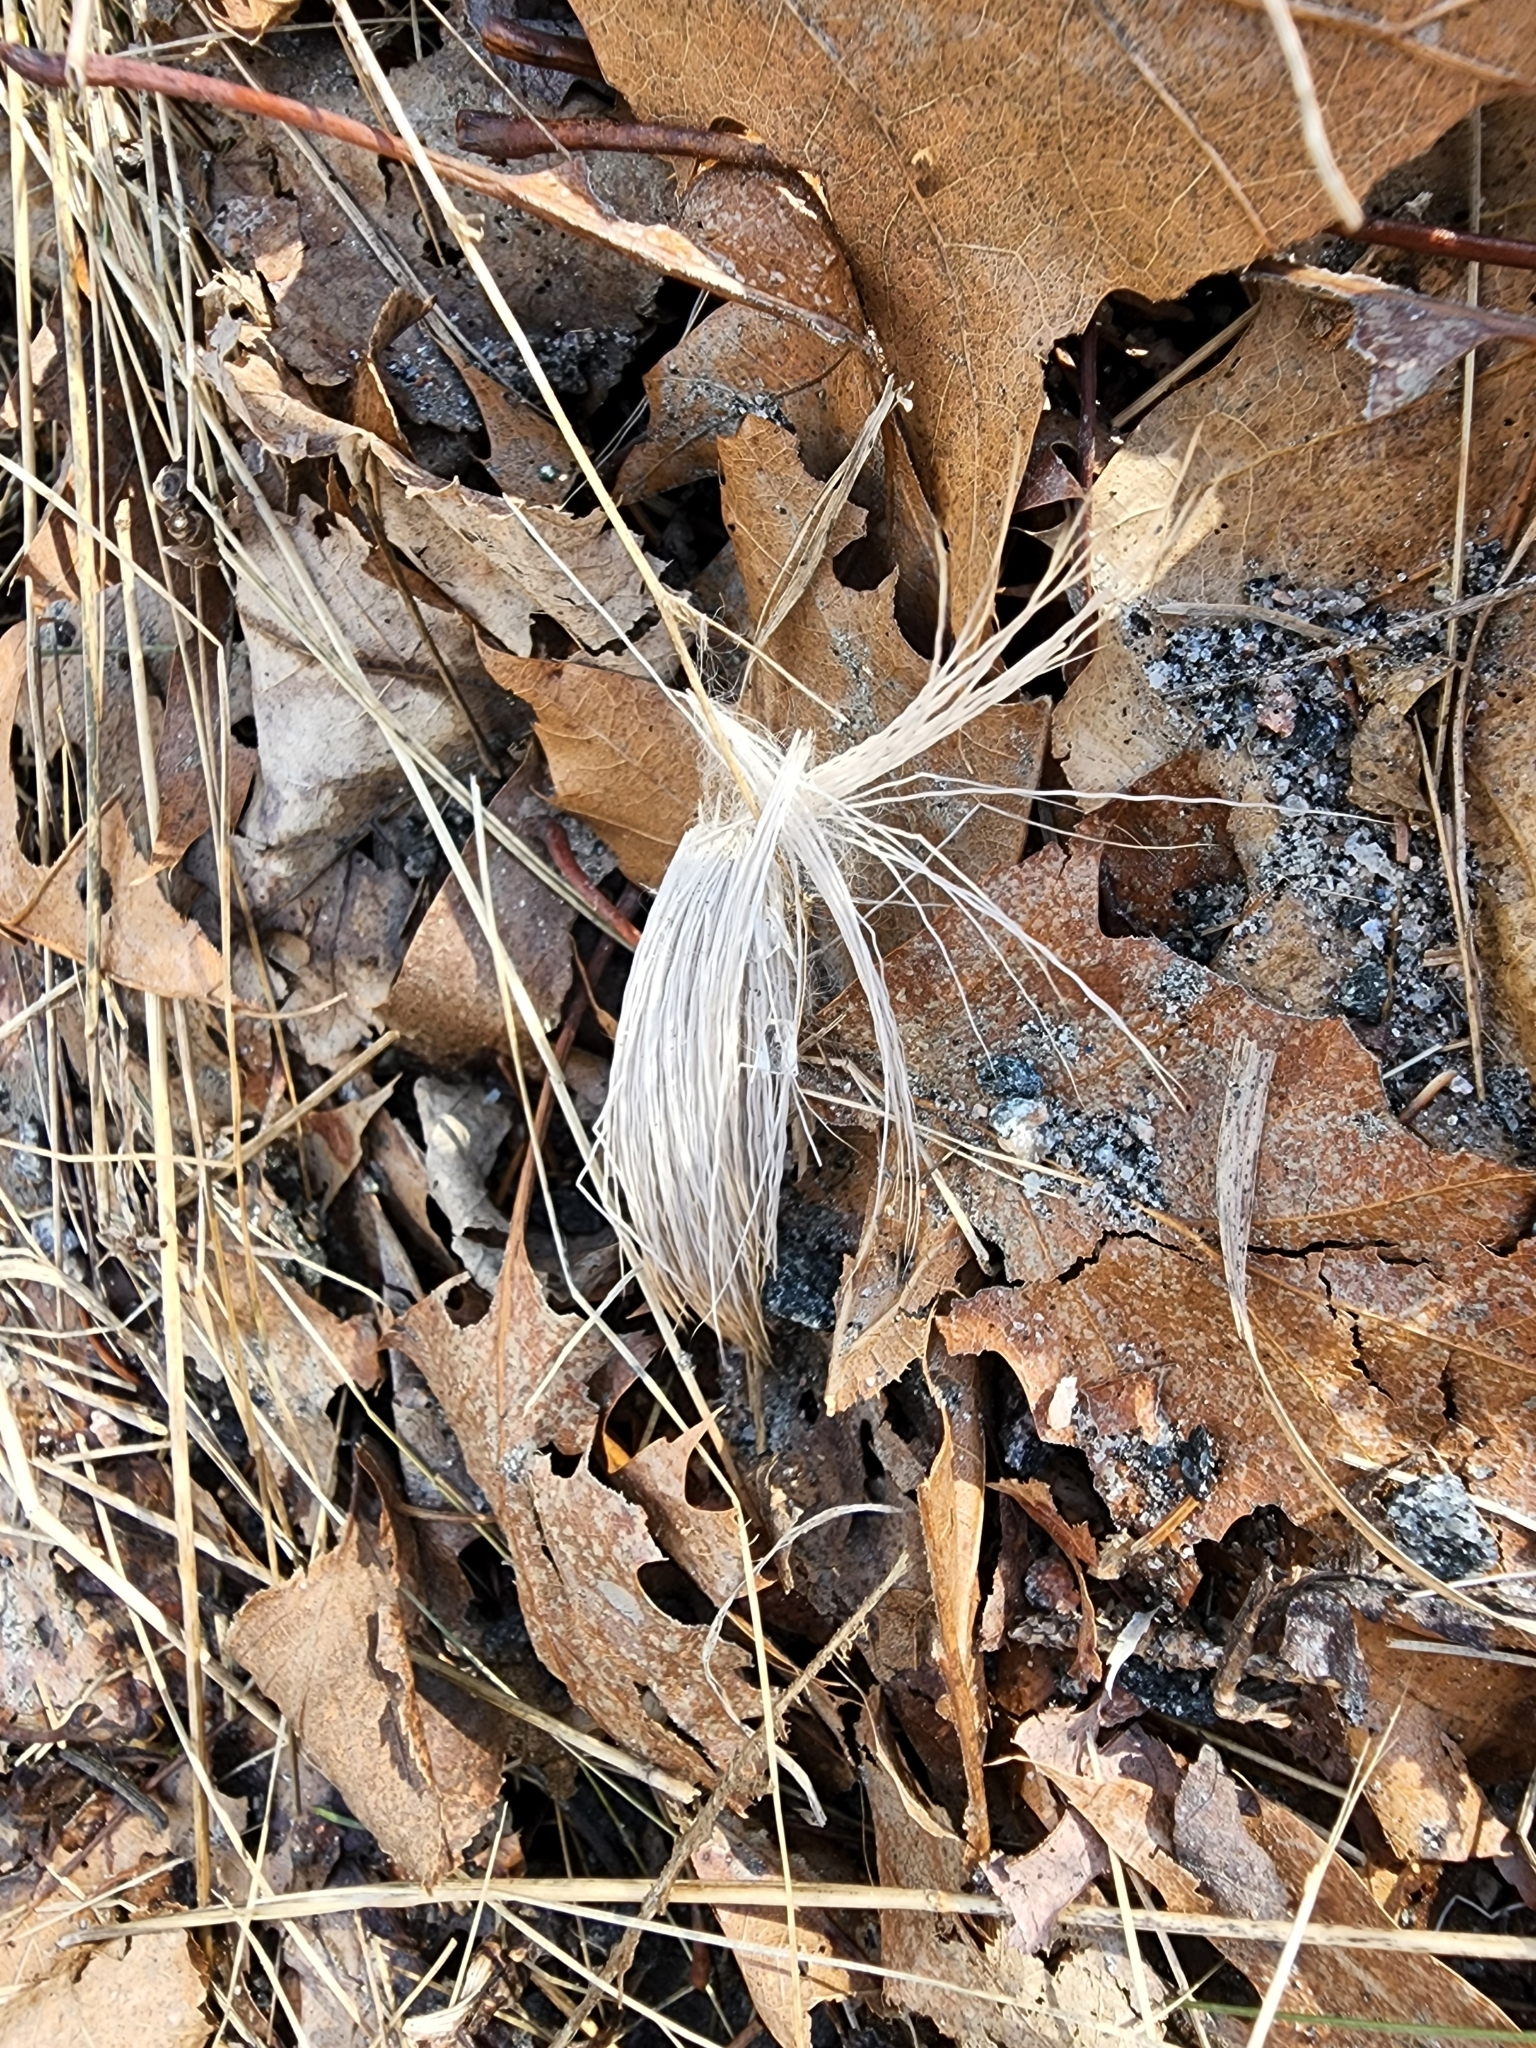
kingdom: Animalia
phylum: Chordata
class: Mammalia
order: Artiodactyla
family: Cervidae
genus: Odocoileus
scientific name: Odocoileus virginianus
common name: White-tailed deer
